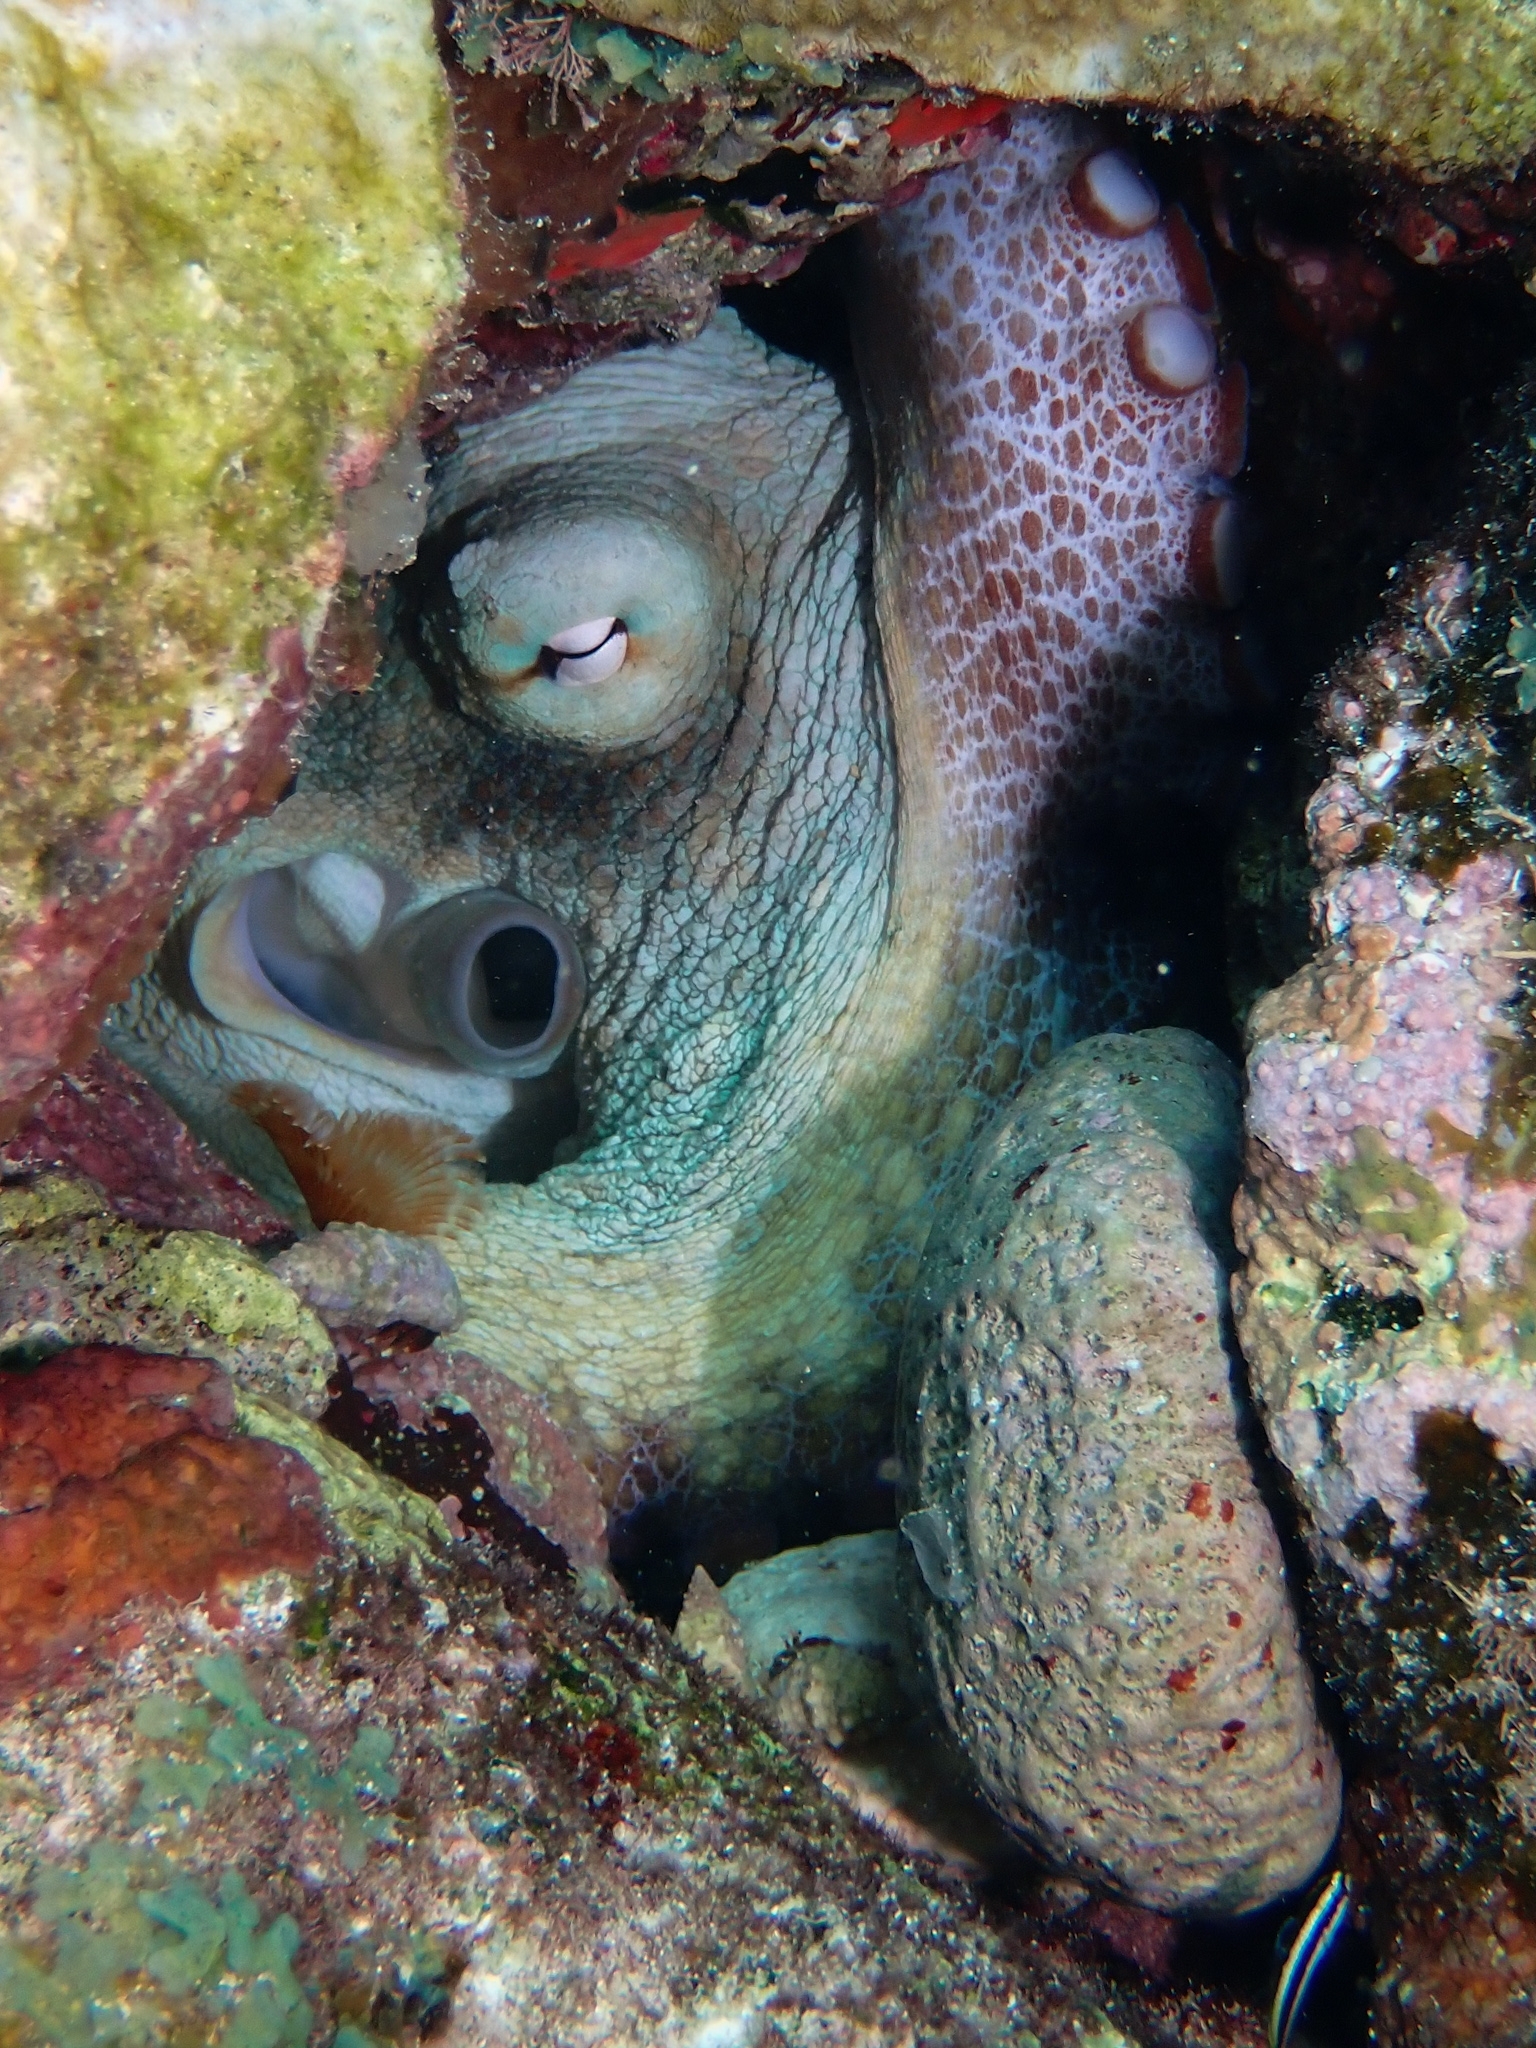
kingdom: Animalia
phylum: Mollusca
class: Cephalopoda
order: Octopoda
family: Octopodidae
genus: Octopus
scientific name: Octopus insularis
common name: Brazil reef octopus
